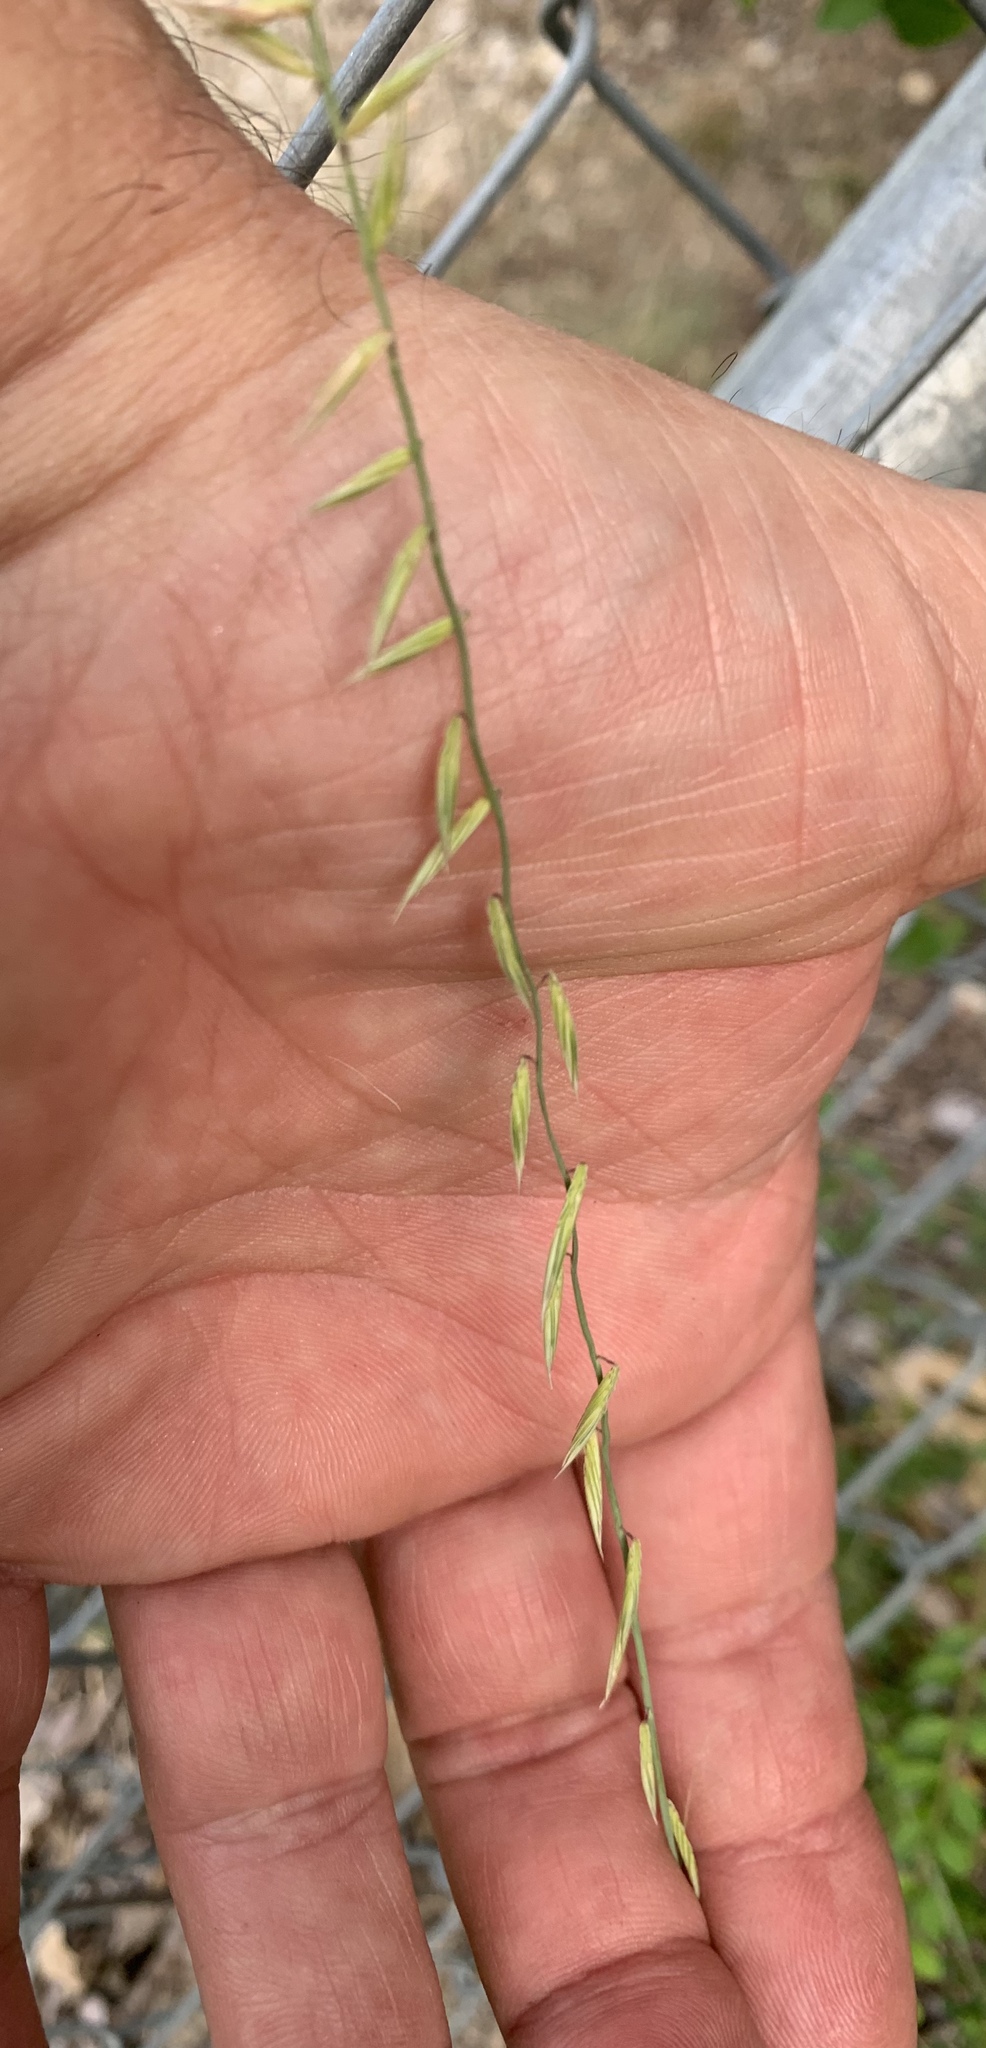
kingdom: Plantae
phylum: Tracheophyta
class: Liliopsida
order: Poales
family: Poaceae
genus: Bouteloua
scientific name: Bouteloua curtipendula
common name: Side-oats grama
